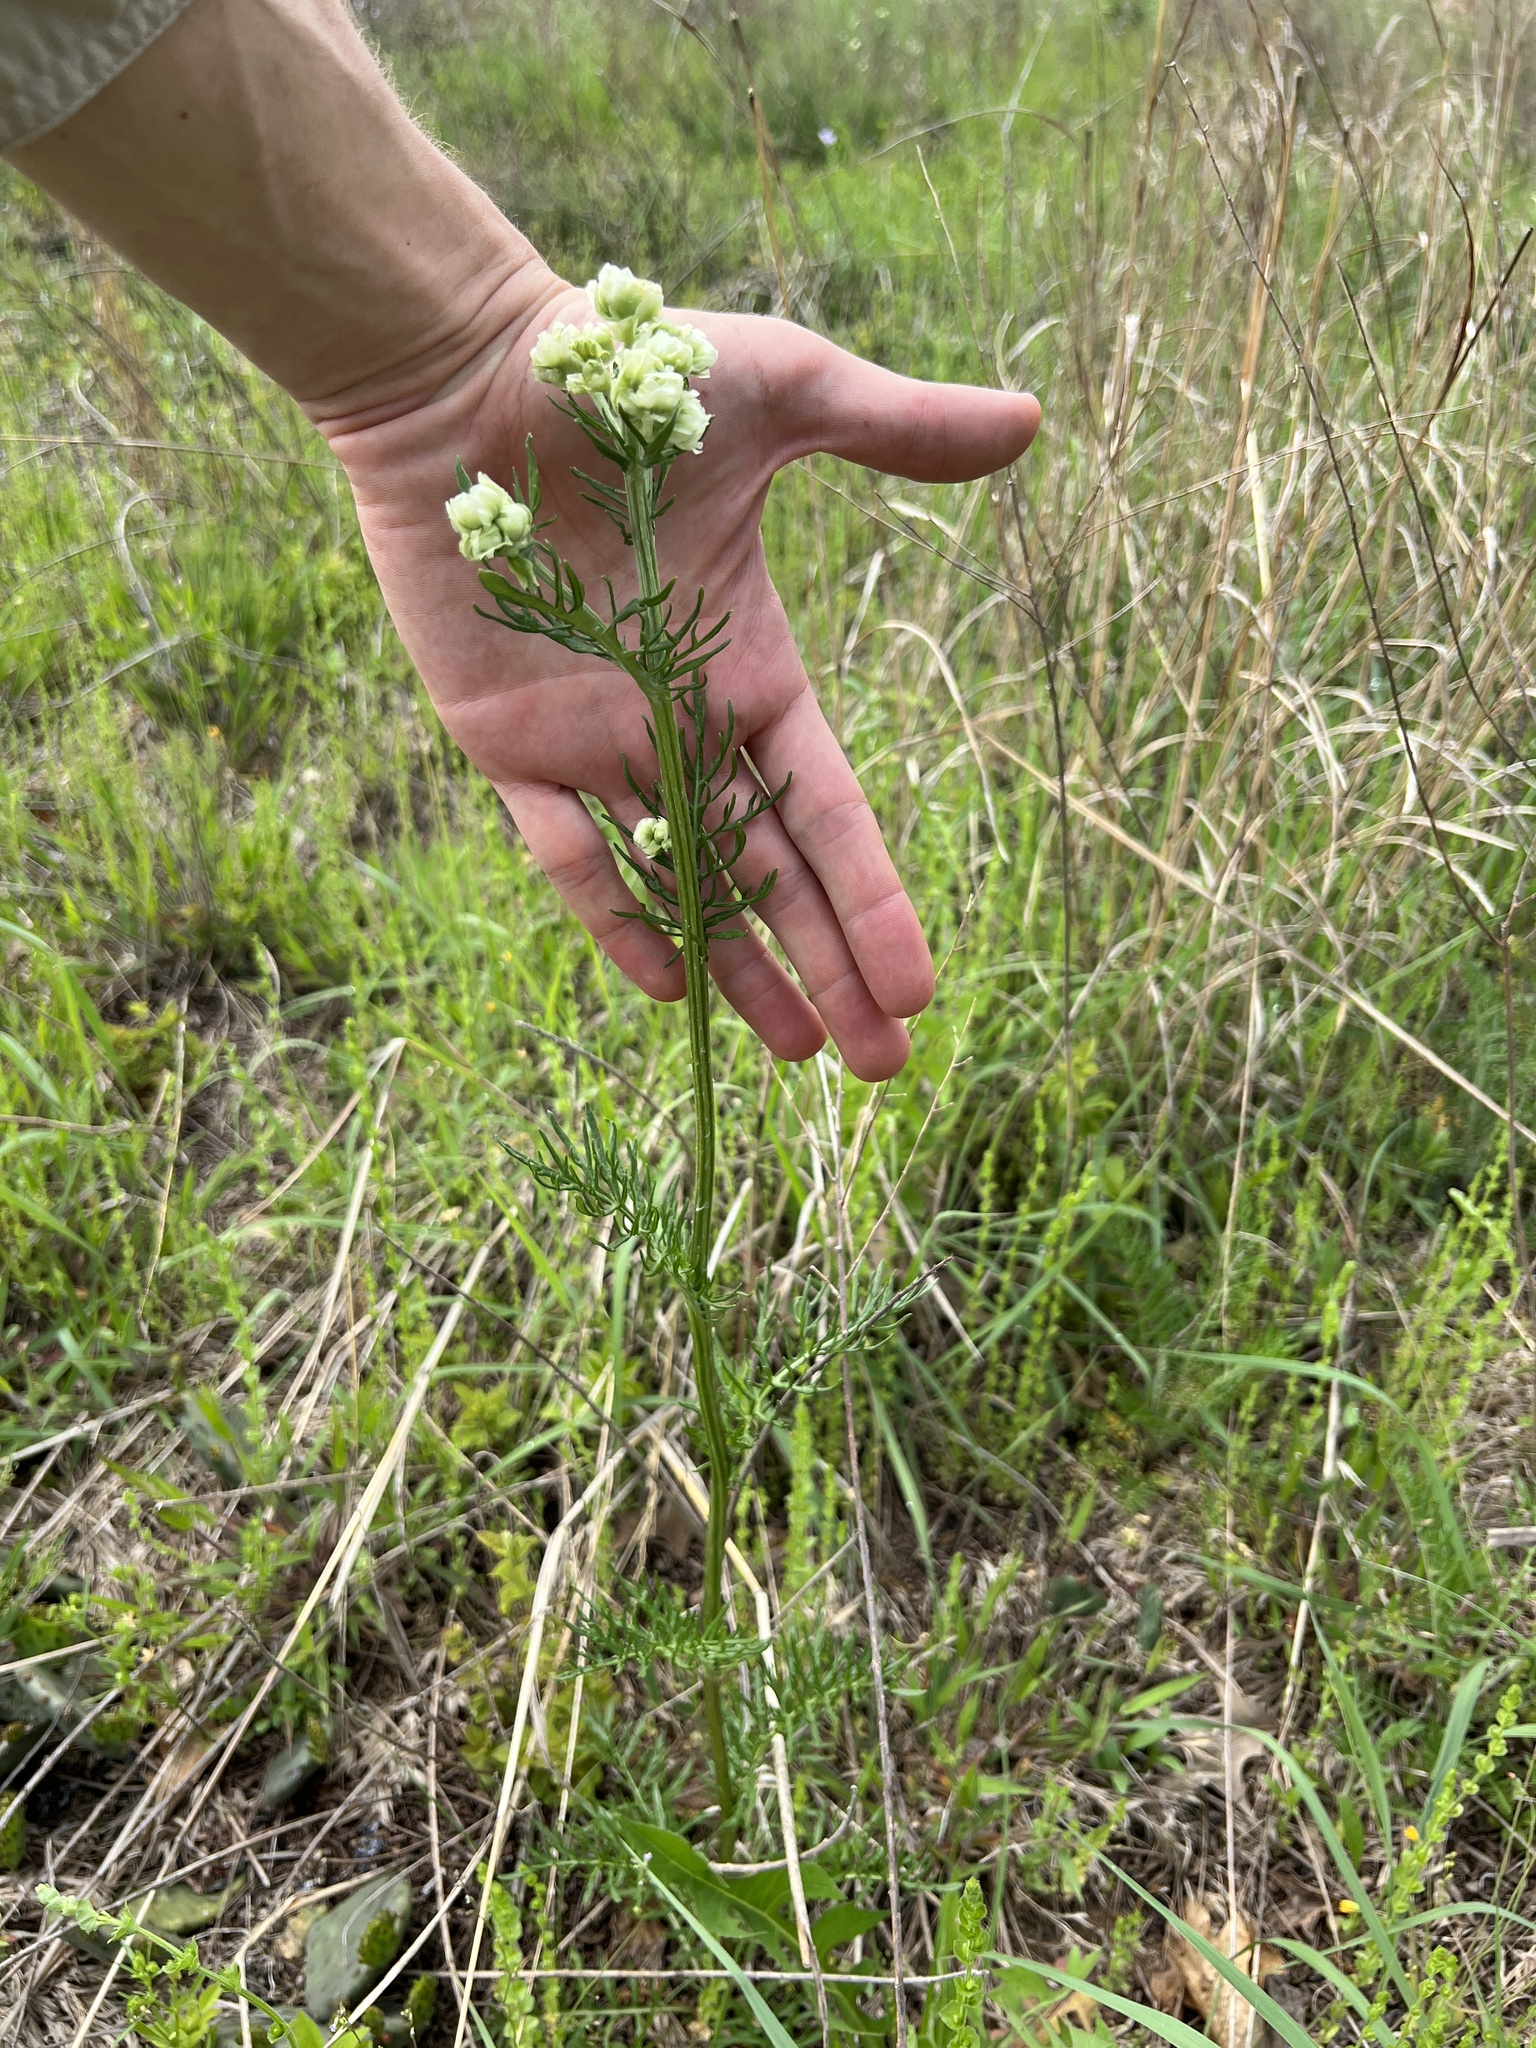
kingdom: Plantae
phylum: Tracheophyta
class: Magnoliopsida
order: Asterales
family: Asteraceae
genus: Hymenopappus
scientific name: Hymenopappus scabiosaeus
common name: Carolina woollywhite
